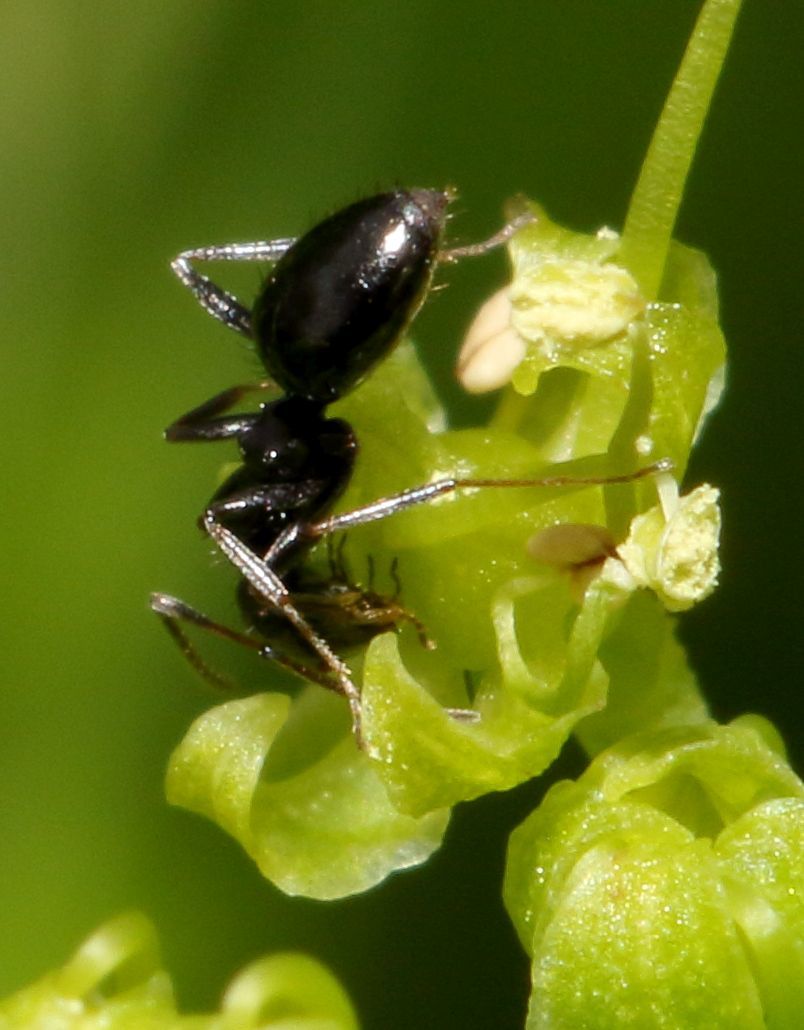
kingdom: Animalia
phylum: Arthropoda
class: Insecta
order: Hymenoptera
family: Formicidae
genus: Lepisiota
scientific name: Lepisiota capensis
